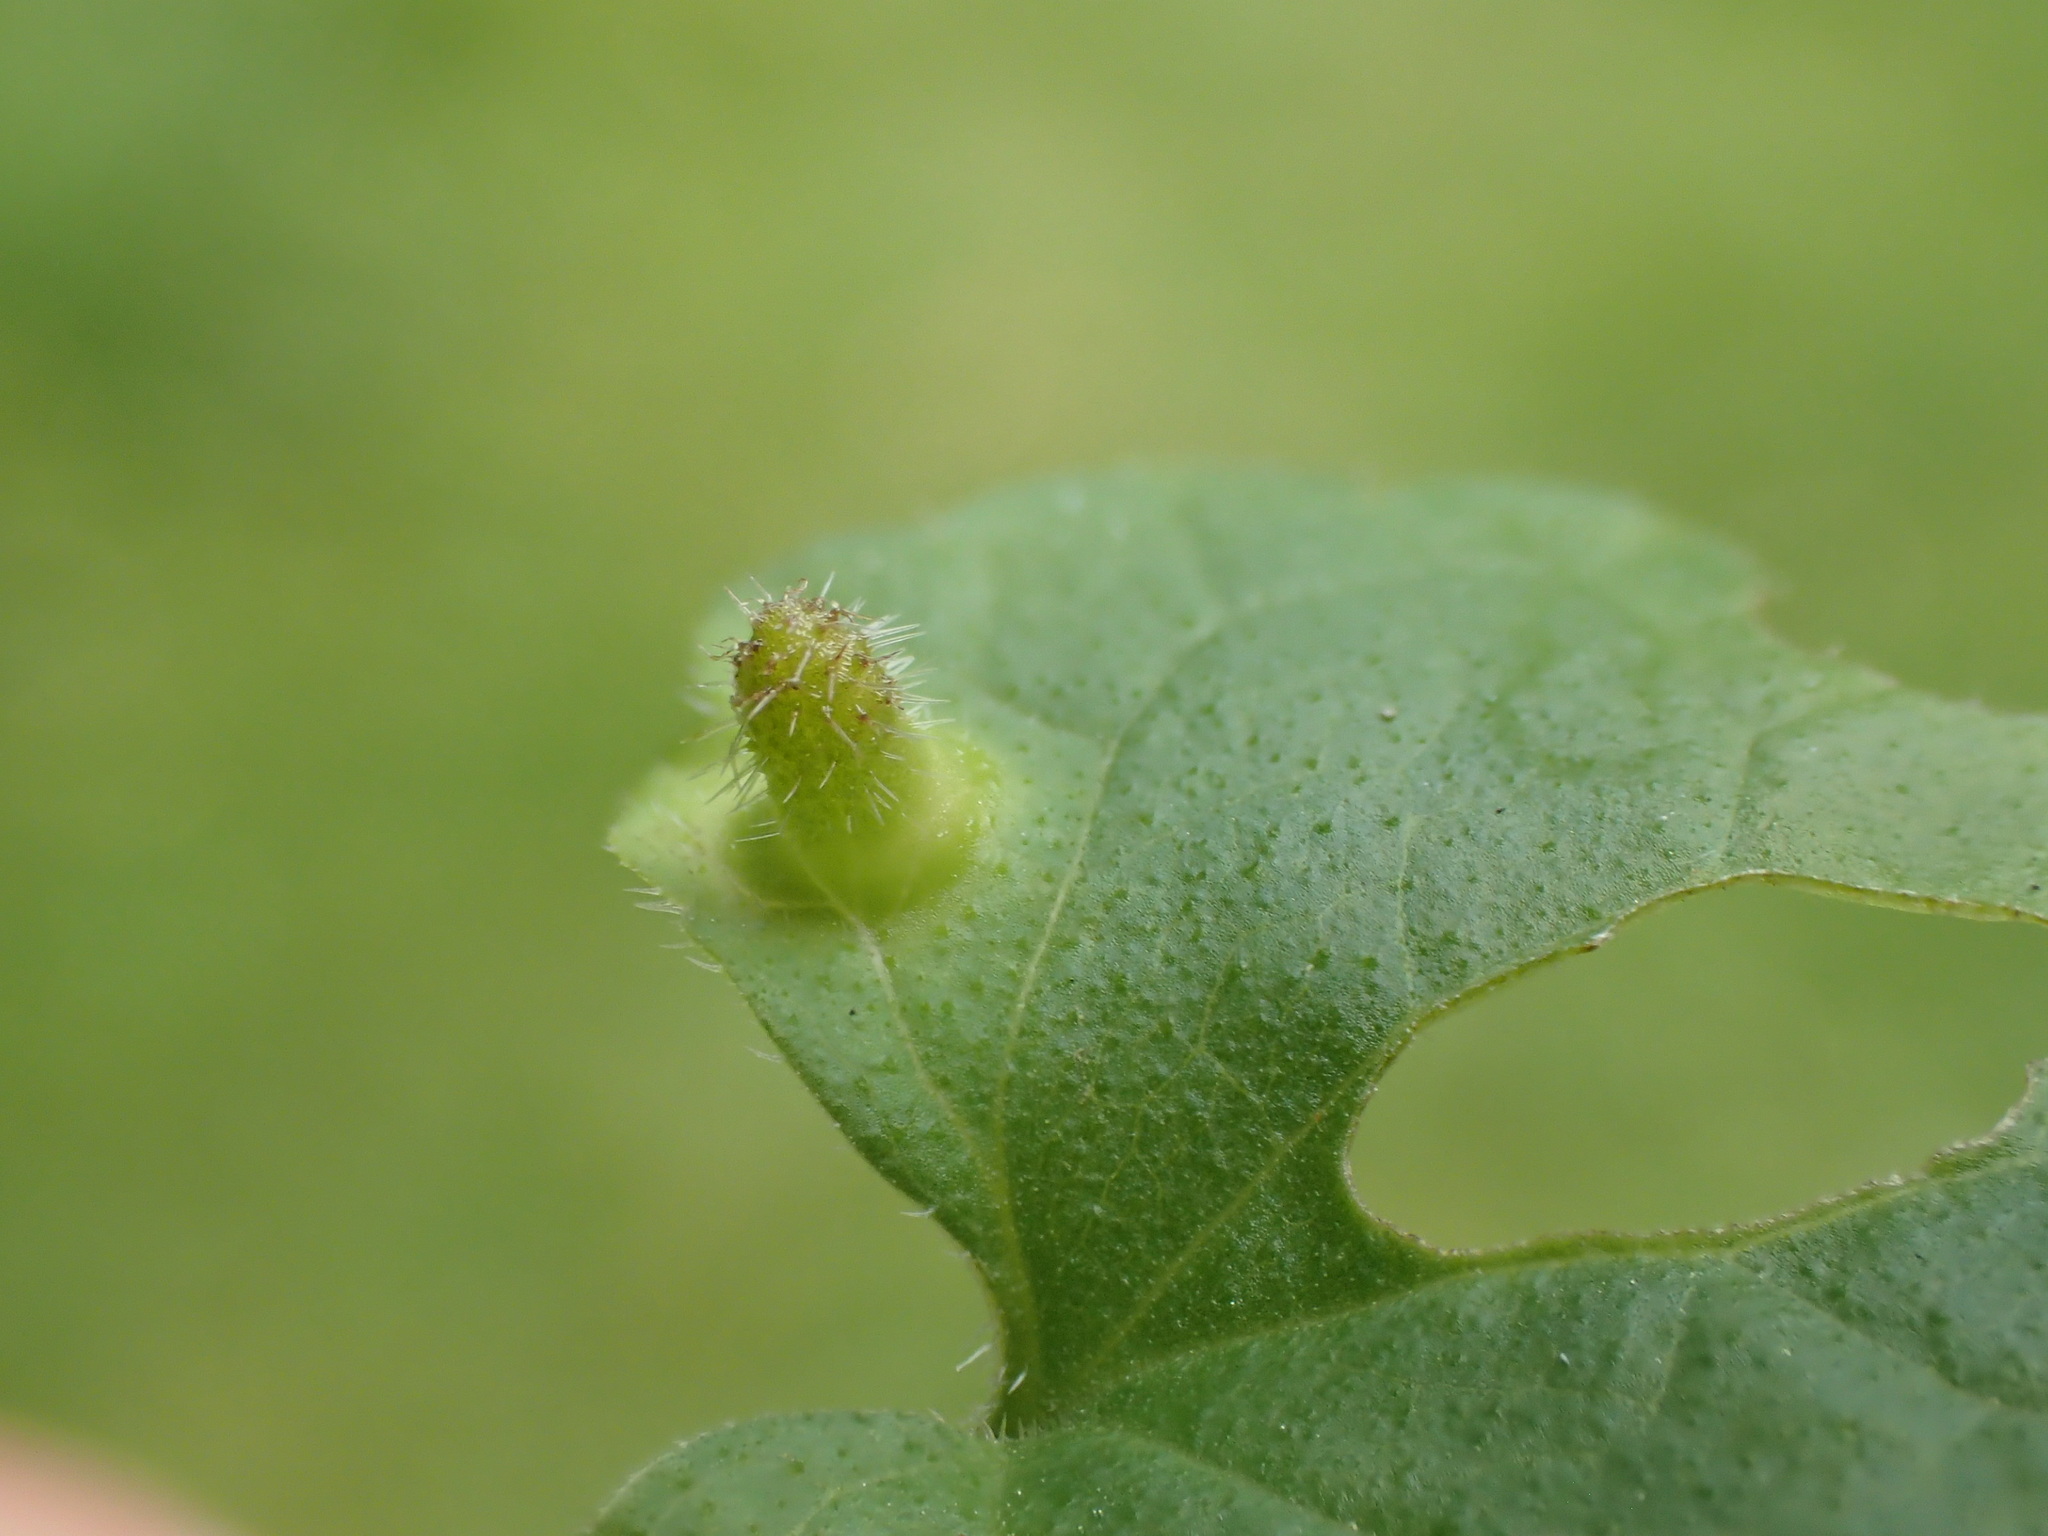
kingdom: Animalia
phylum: Arthropoda
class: Insecta
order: Diptera
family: Cecidomyiidae
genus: Rondaniola
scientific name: Rondaniola bursaria
